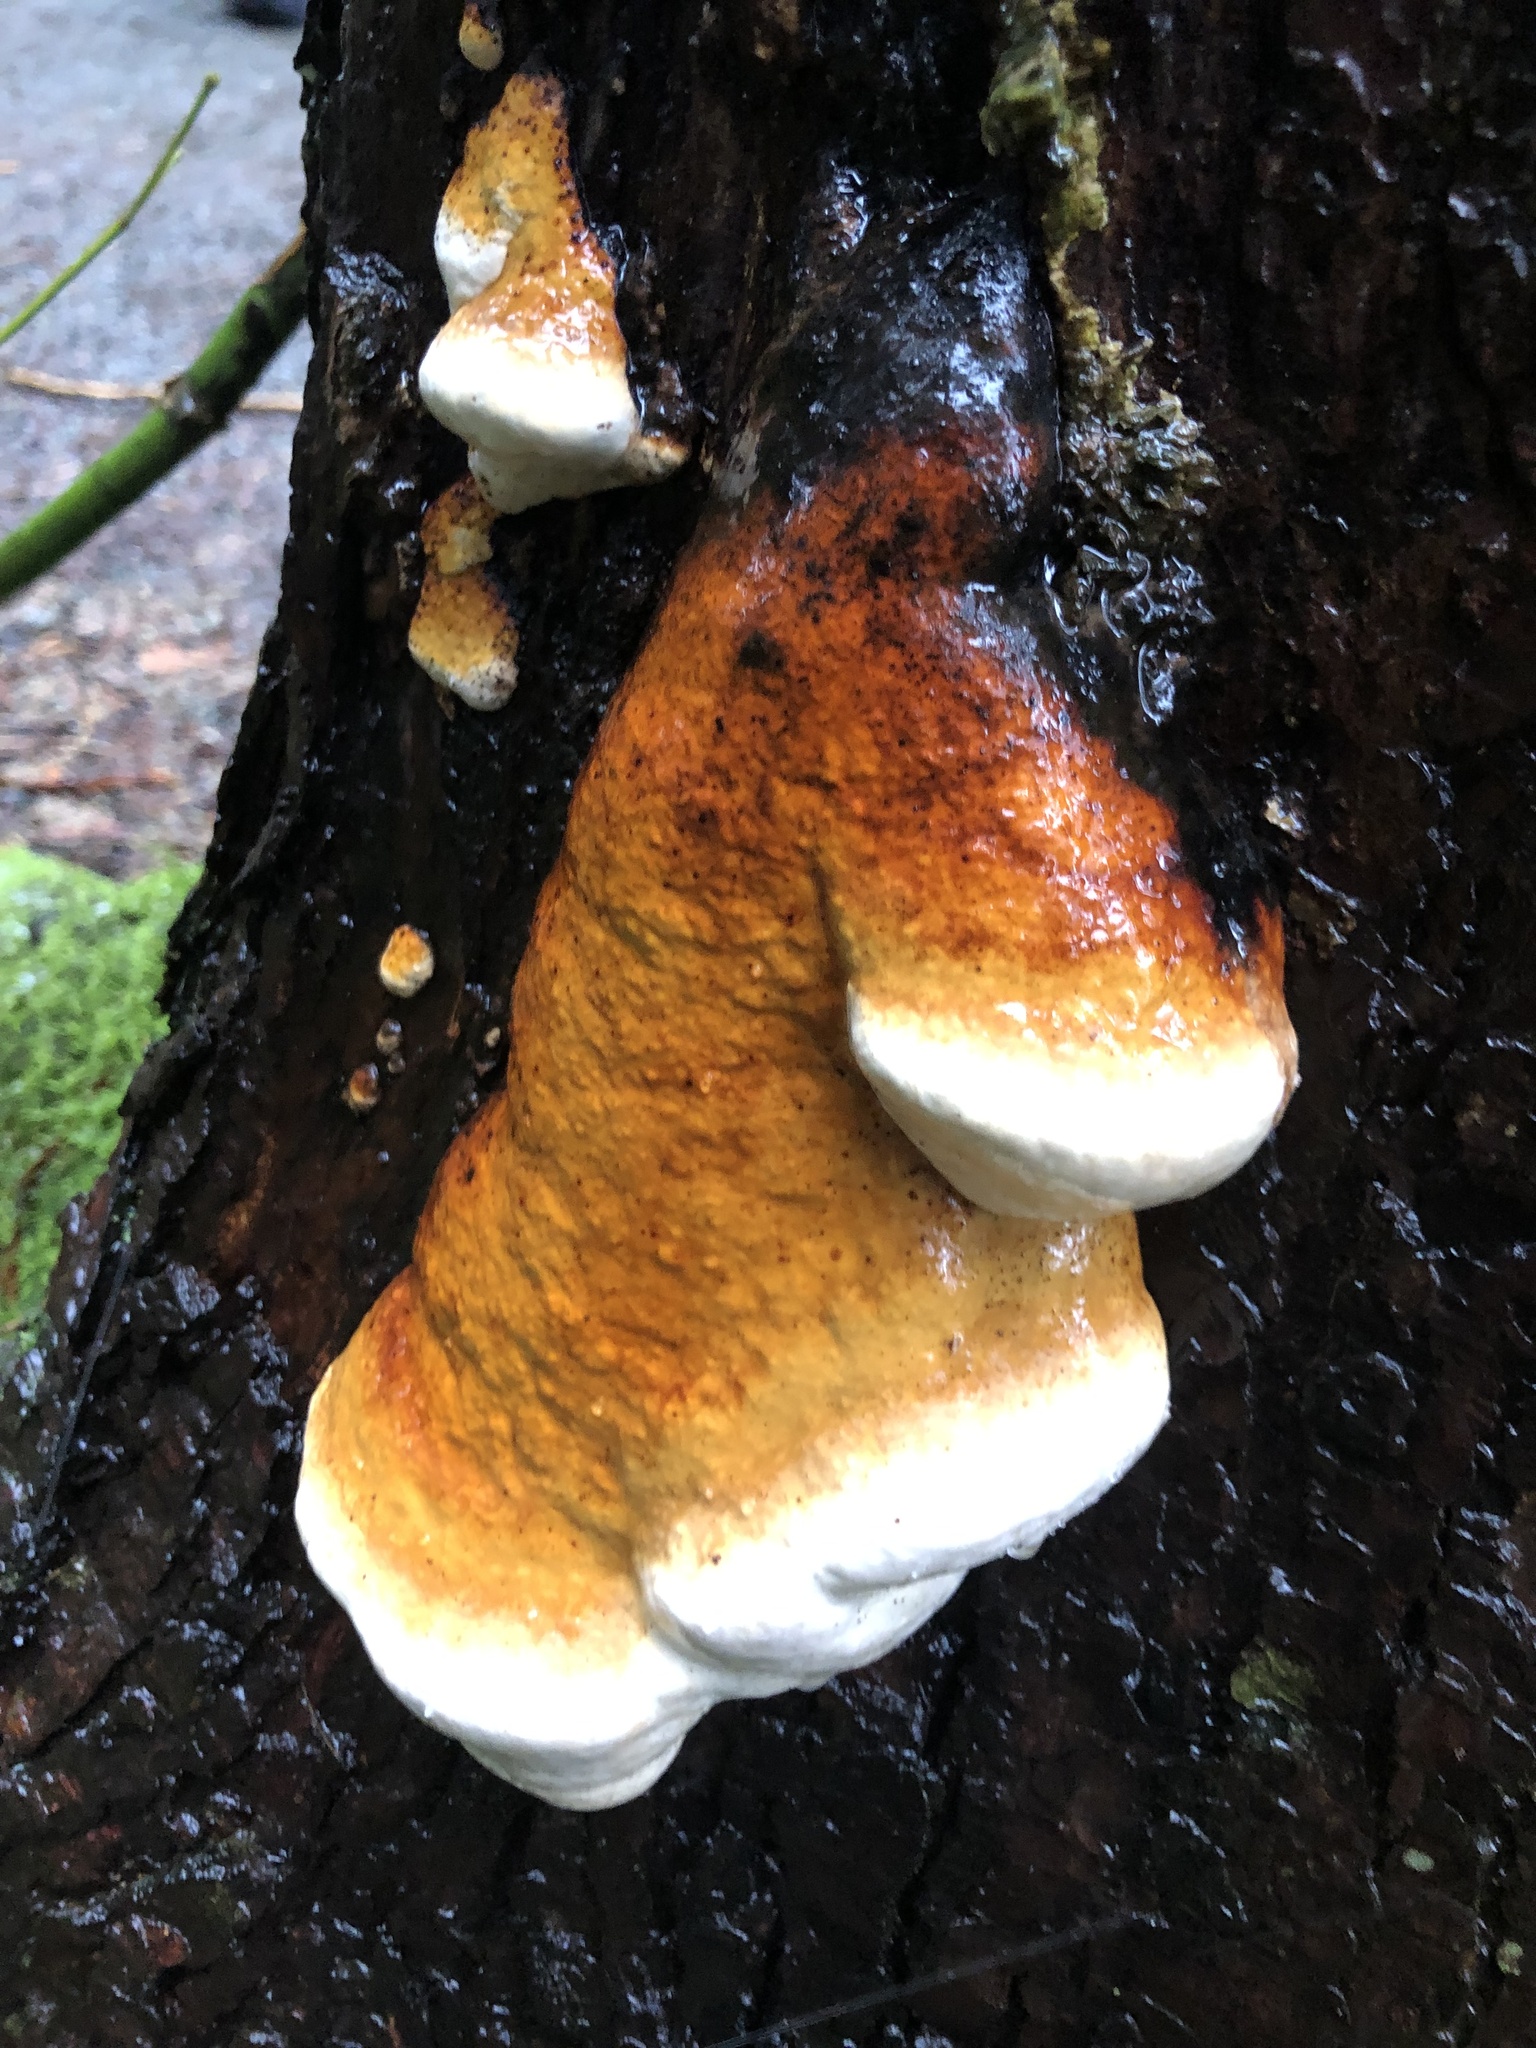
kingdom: Fungi
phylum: Basidiomycota
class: Agaricomycetes
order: Polyporales
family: Fomitopsidaceae
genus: Fomitopsis
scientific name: Fomitopsis mounceae
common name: Northern red belt
